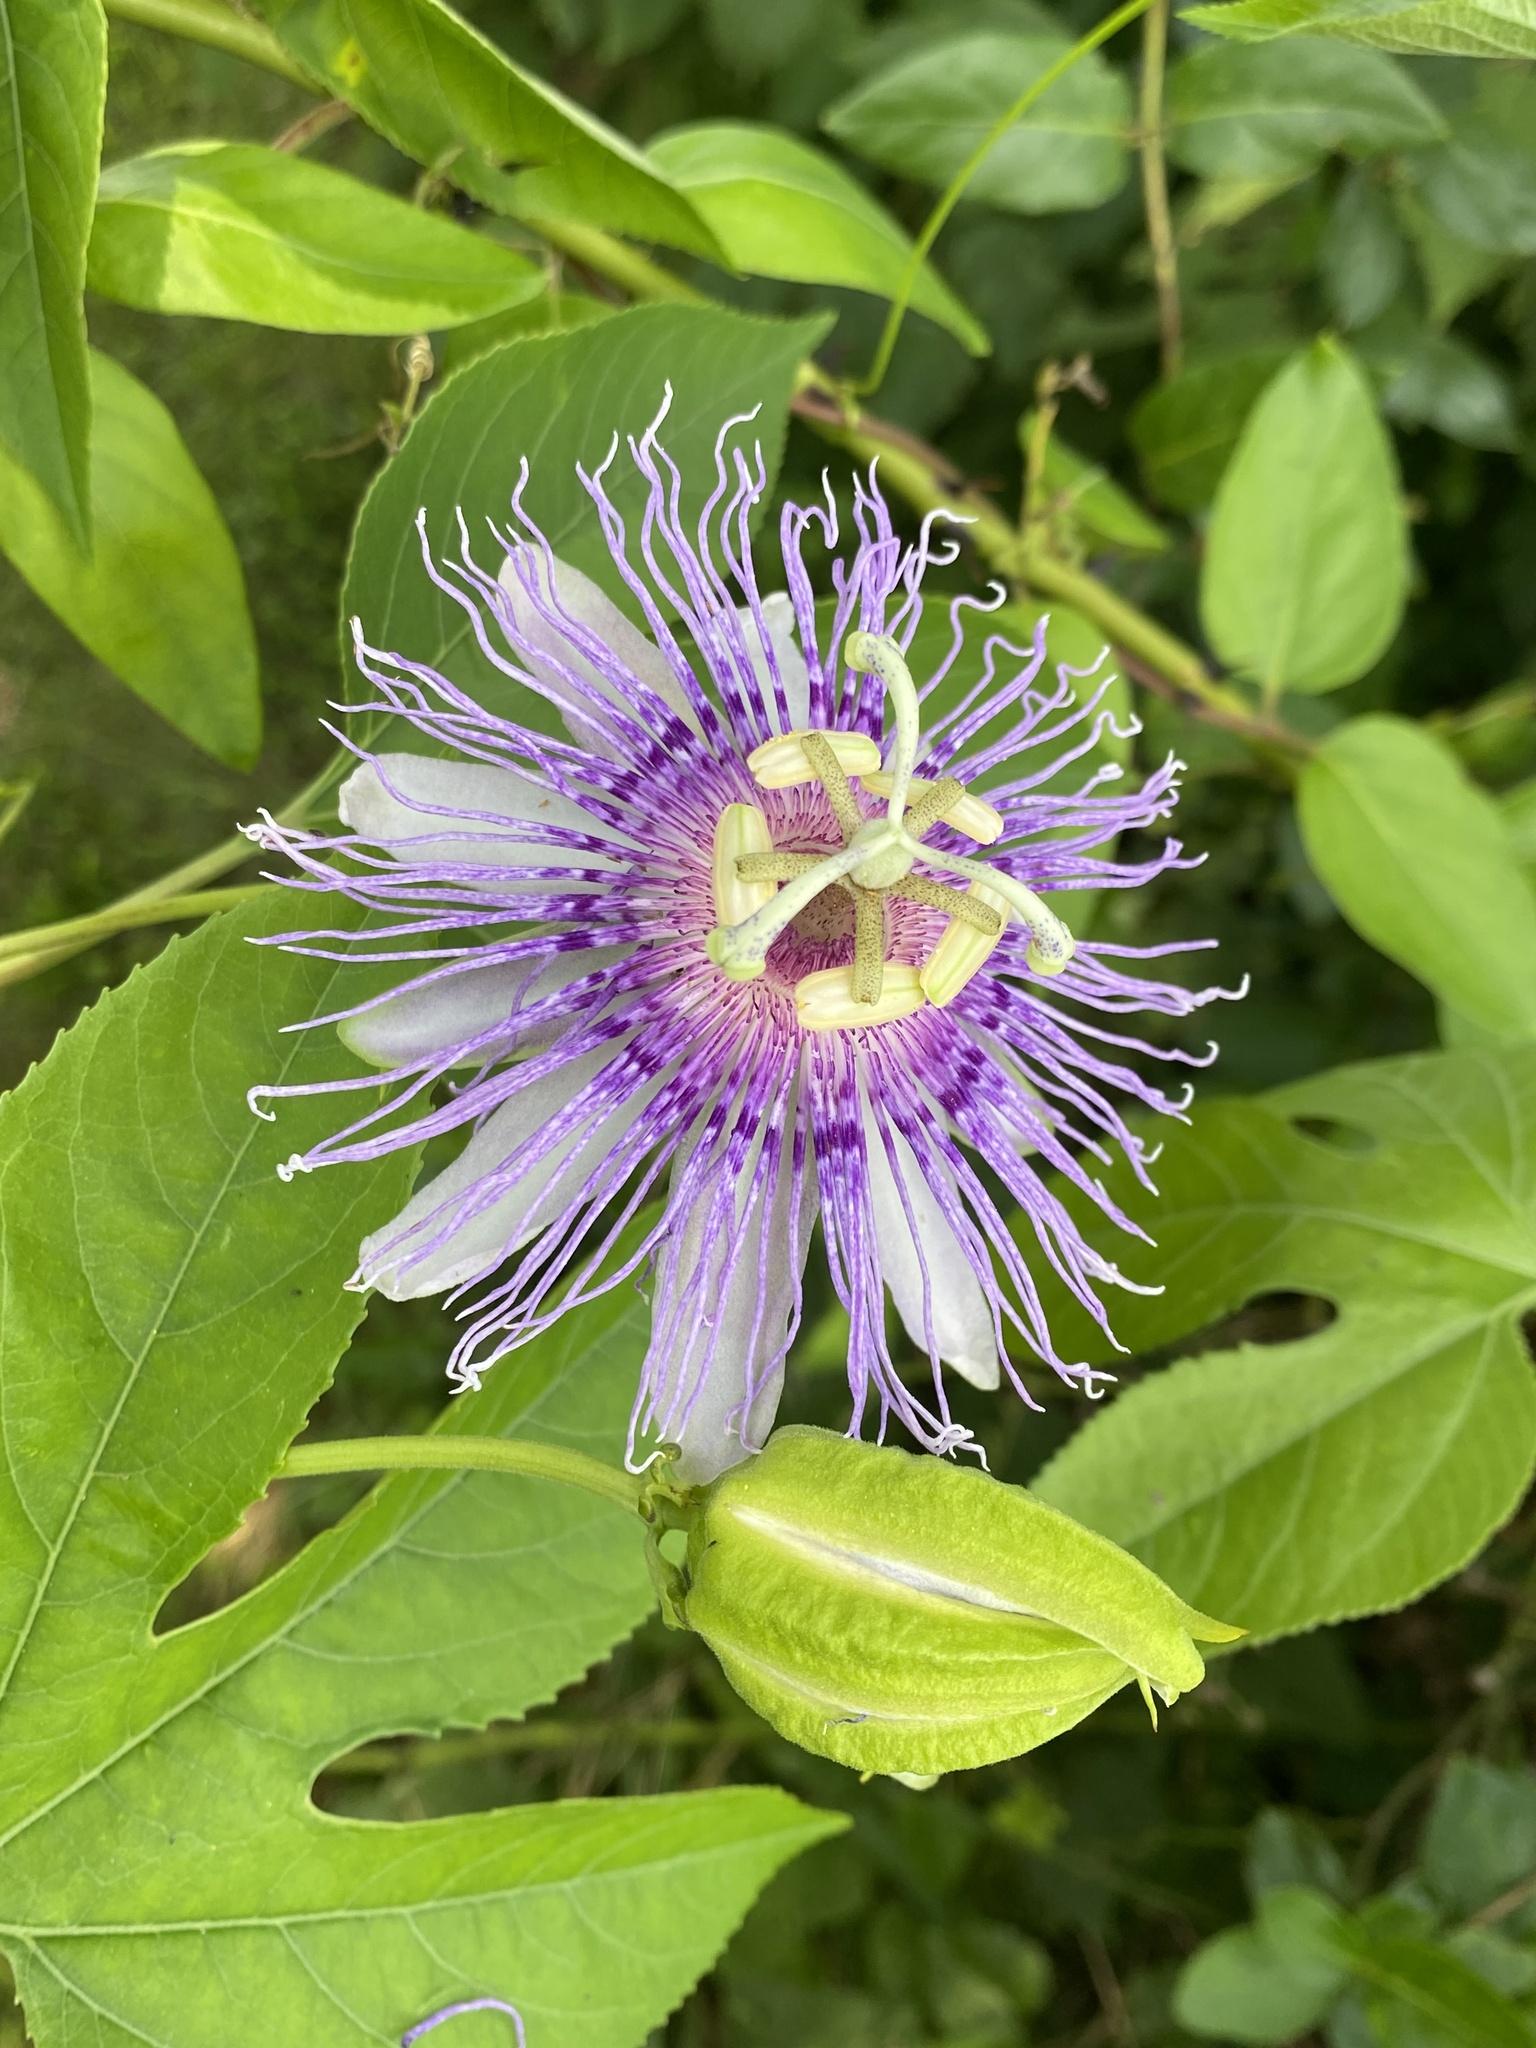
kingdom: Plantae
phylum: Tracheophyta
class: Magnoliopsida
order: Malpighiales
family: Passifloraceae
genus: Passiflora
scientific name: Passiflora incarnata
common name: Apricot-vine
